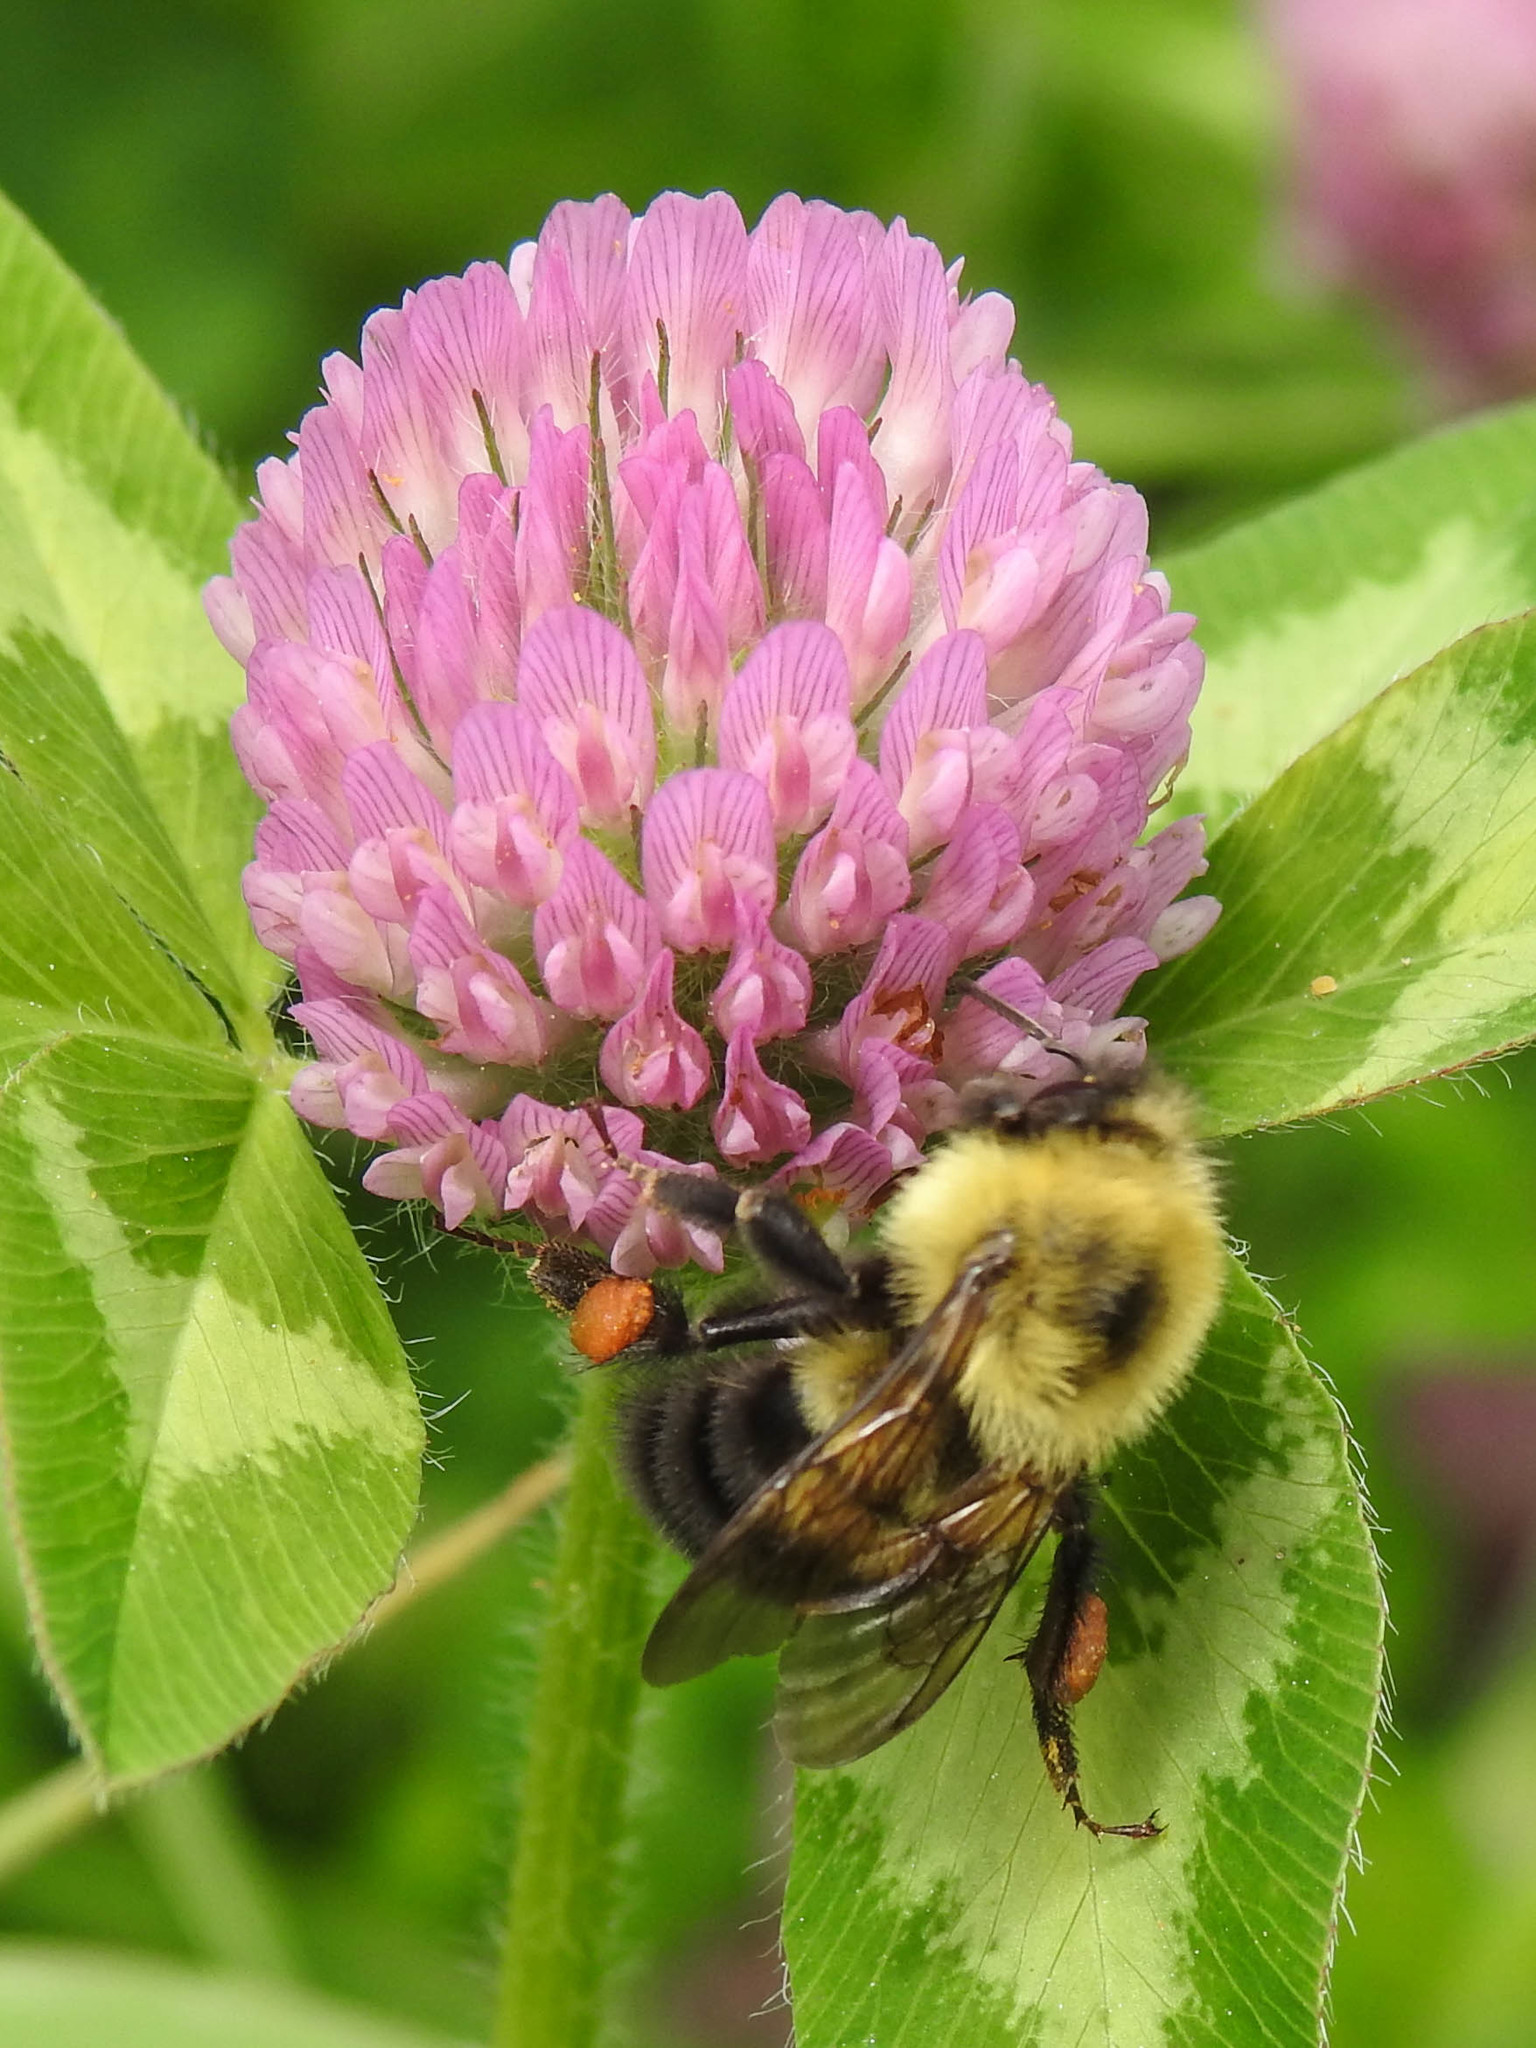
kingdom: Animalia
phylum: Arthropoda
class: Insecta
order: Hymenoptera
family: Apidae
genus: Bombus
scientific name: Bombus bimaculatus
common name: Two-spotted bumble bee
